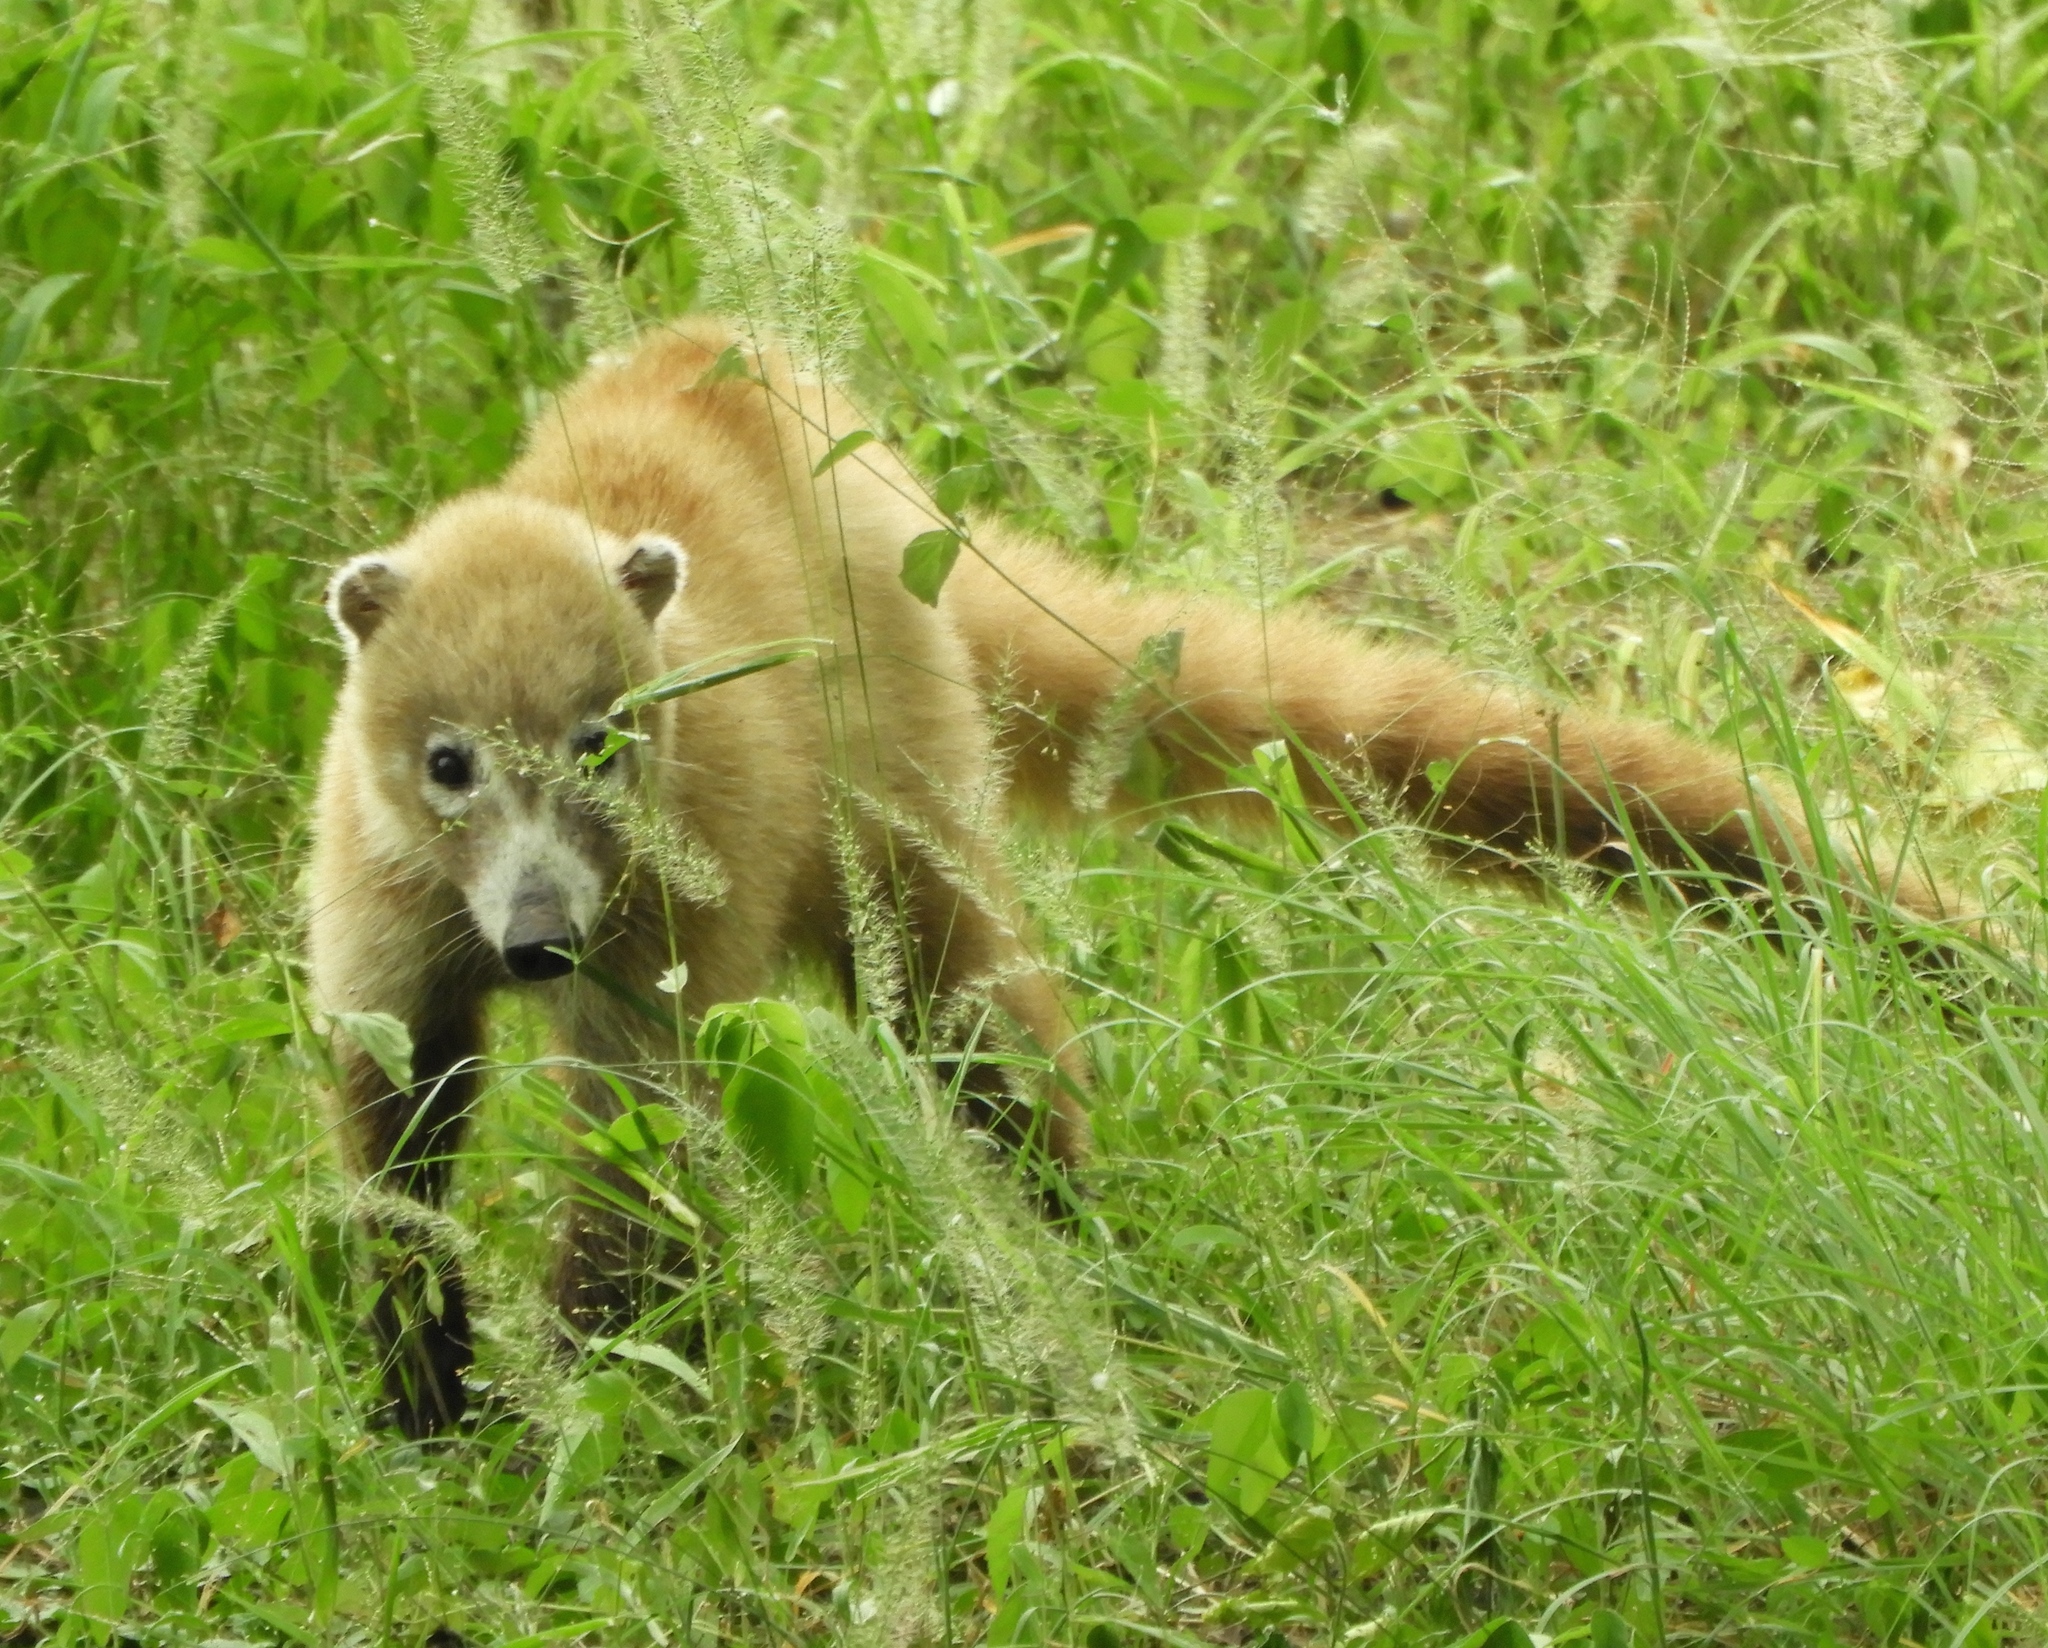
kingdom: Animalia
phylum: Chordata
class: Mammalia
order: Carnivora
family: Procyonidae
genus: Nasua
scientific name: Nasua narica
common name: White-nosed coati
